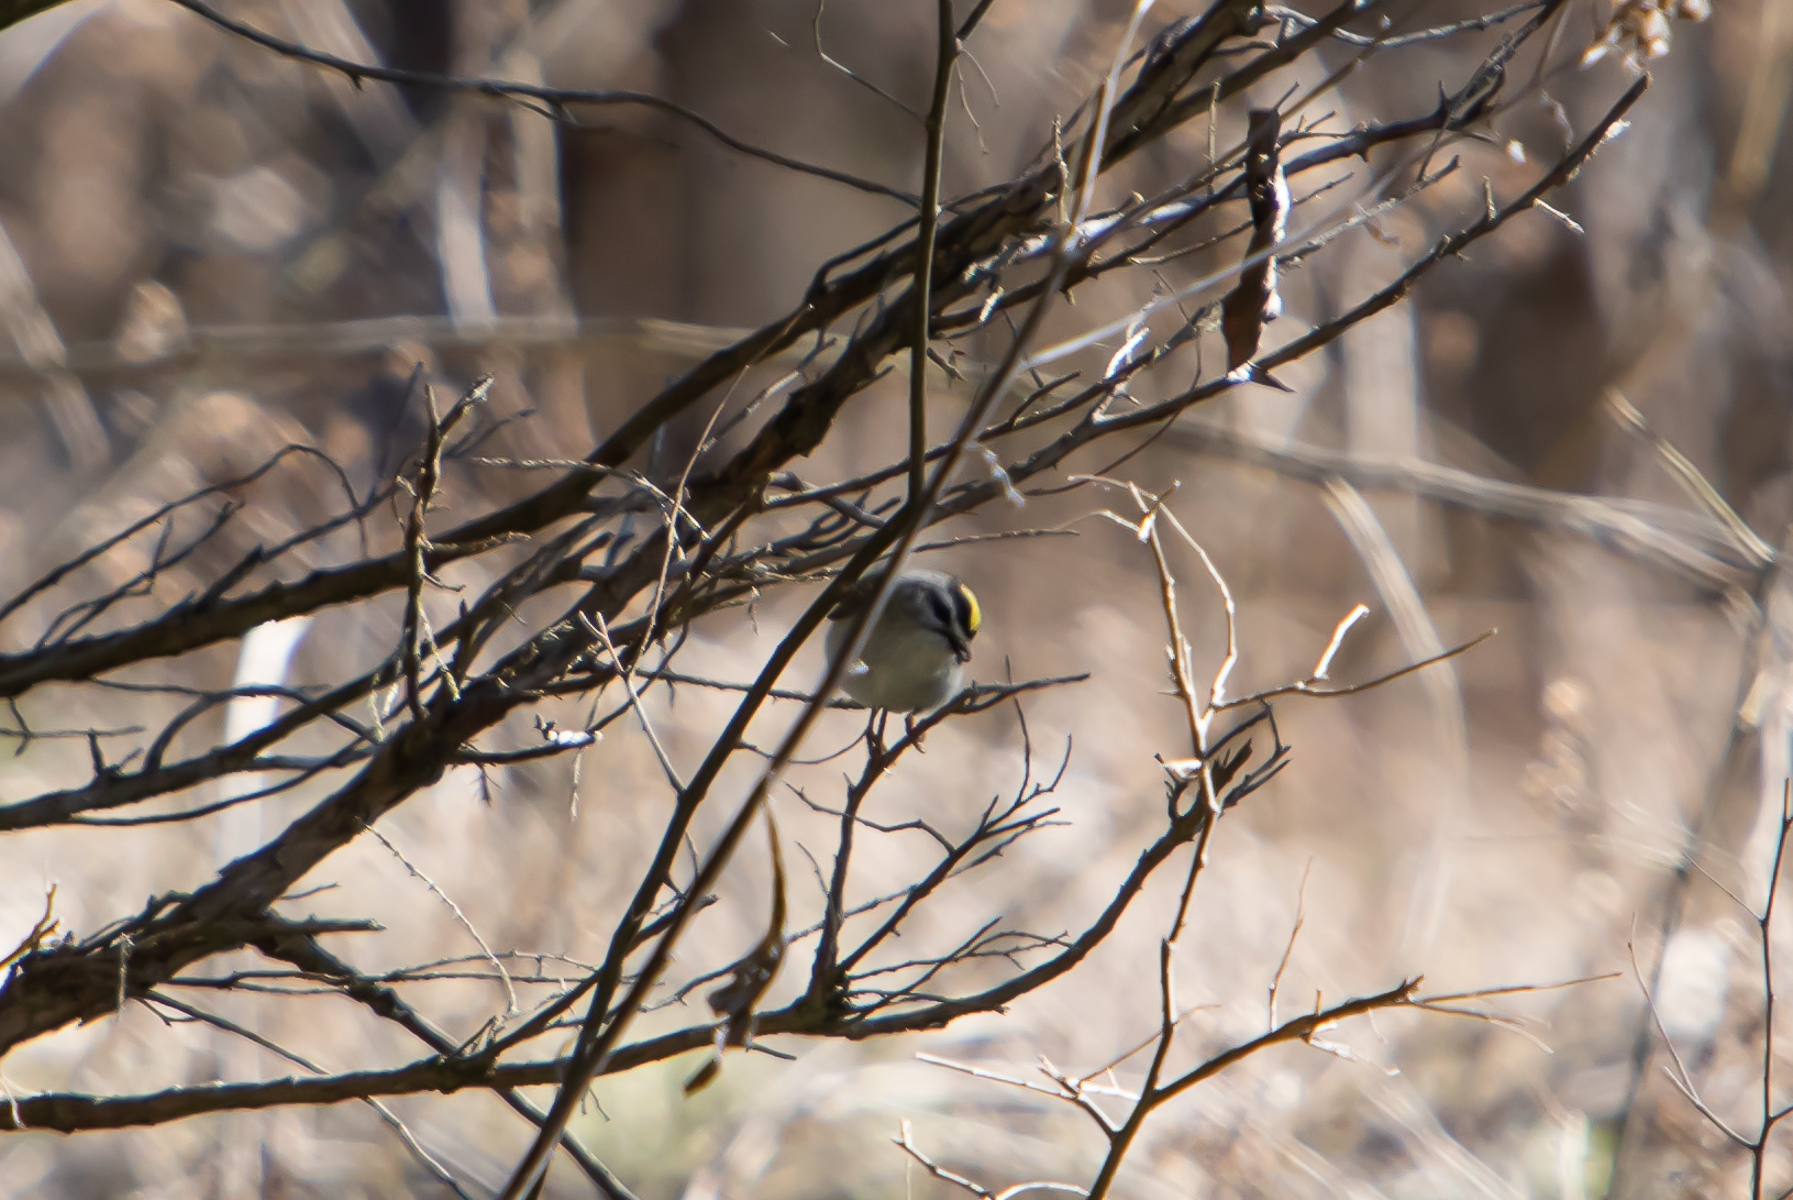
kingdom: Animalia
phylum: Chordata
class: Aves
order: Passeriformes
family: Regulidae
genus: Regulus
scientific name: Regulus satrapa
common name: Golden-crowned kinglet
